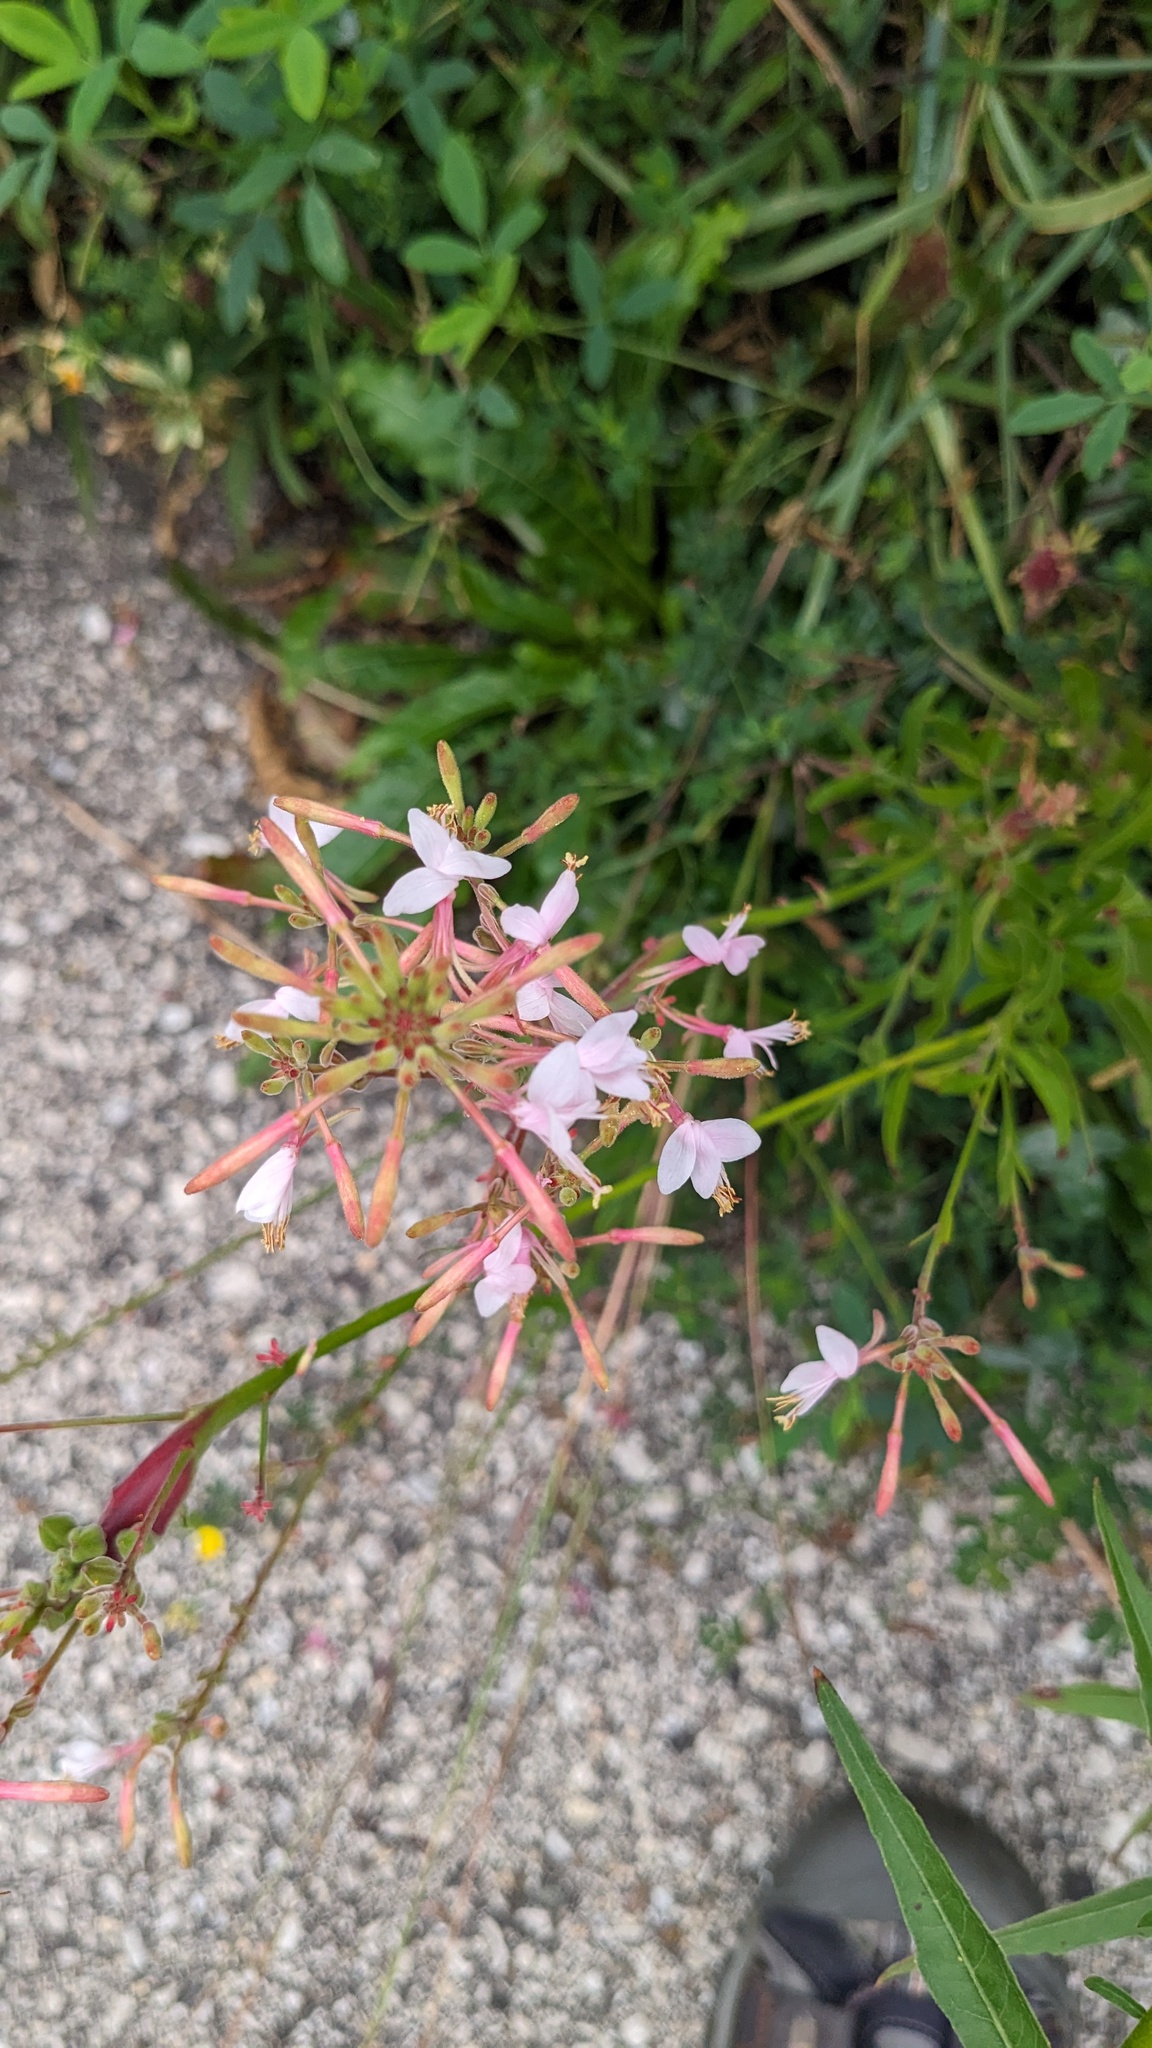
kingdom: Plantae
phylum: Tracheophyta
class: Magnoliopsida
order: Myrtales
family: Onagraceae
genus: Oenothera
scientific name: Oenothera gaura
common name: Biennial beeblossom
